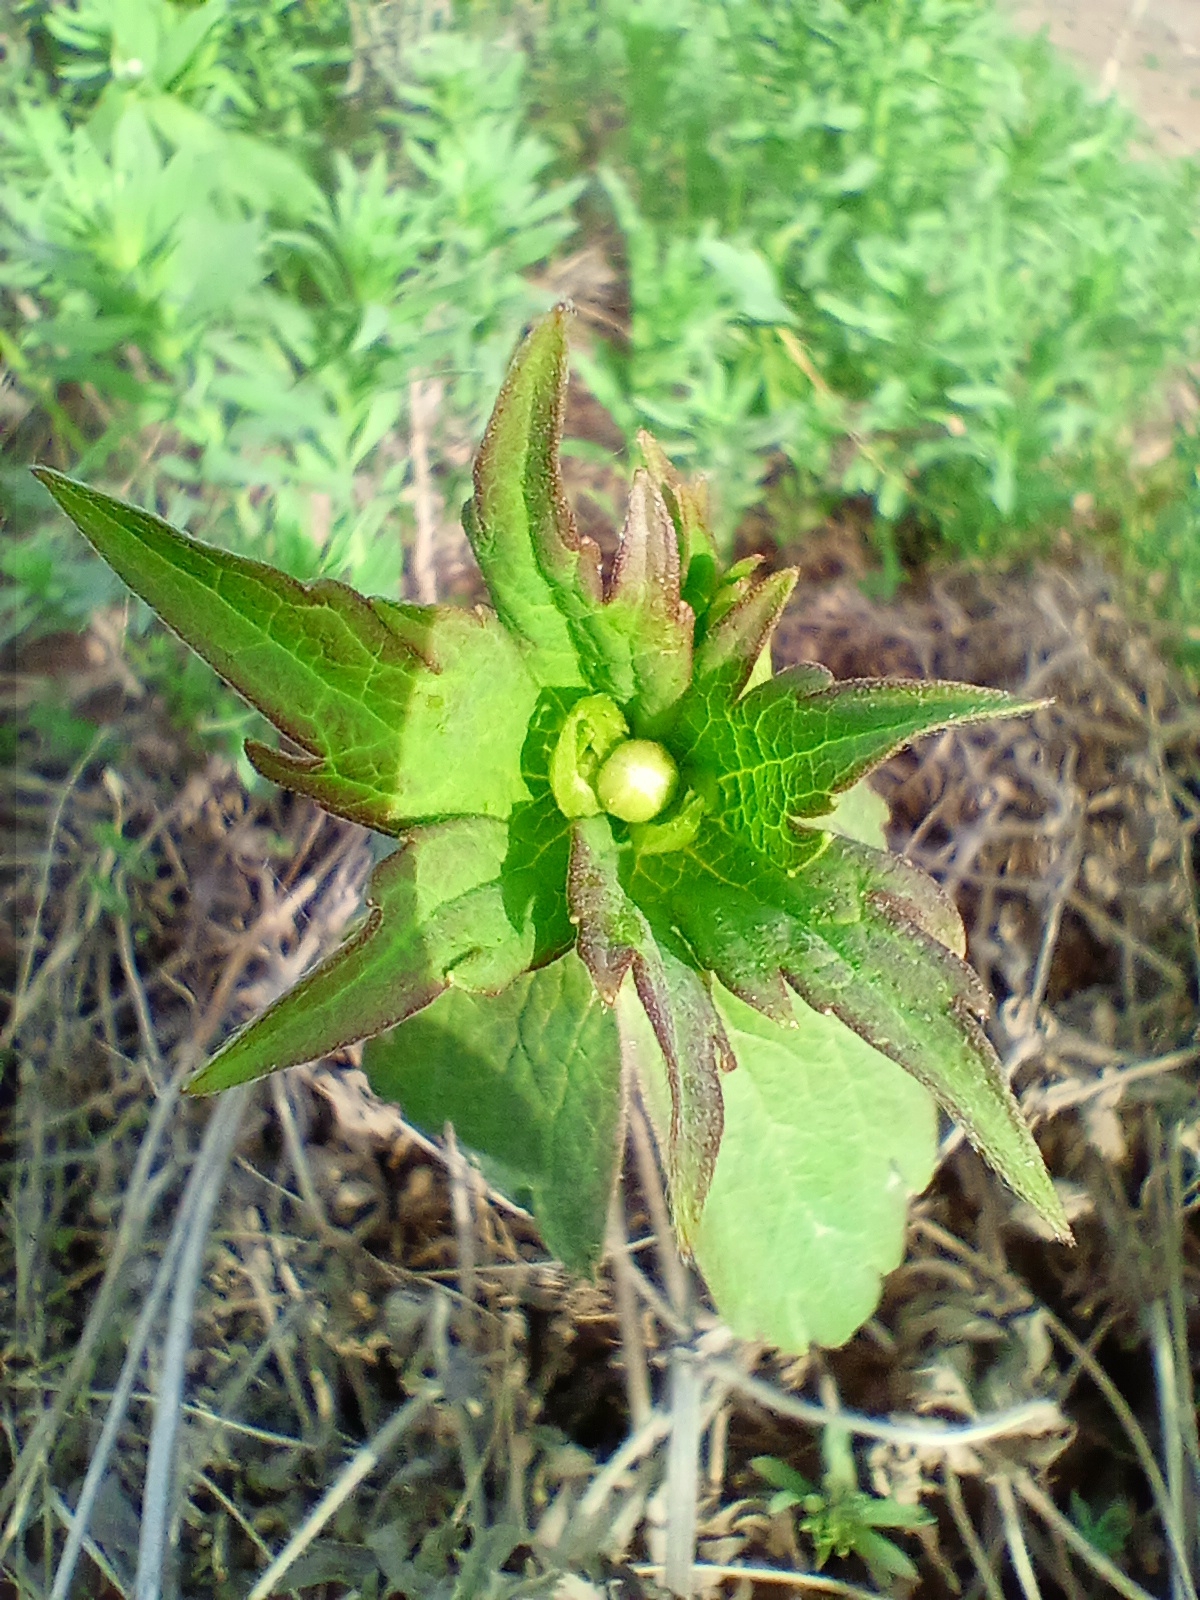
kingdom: Plantae
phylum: Tracheophyta
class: Magnoliopsida
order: Ranunculales
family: Ranunculaceae
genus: Anemonastrum
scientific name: Anemonastrum dichotomum
